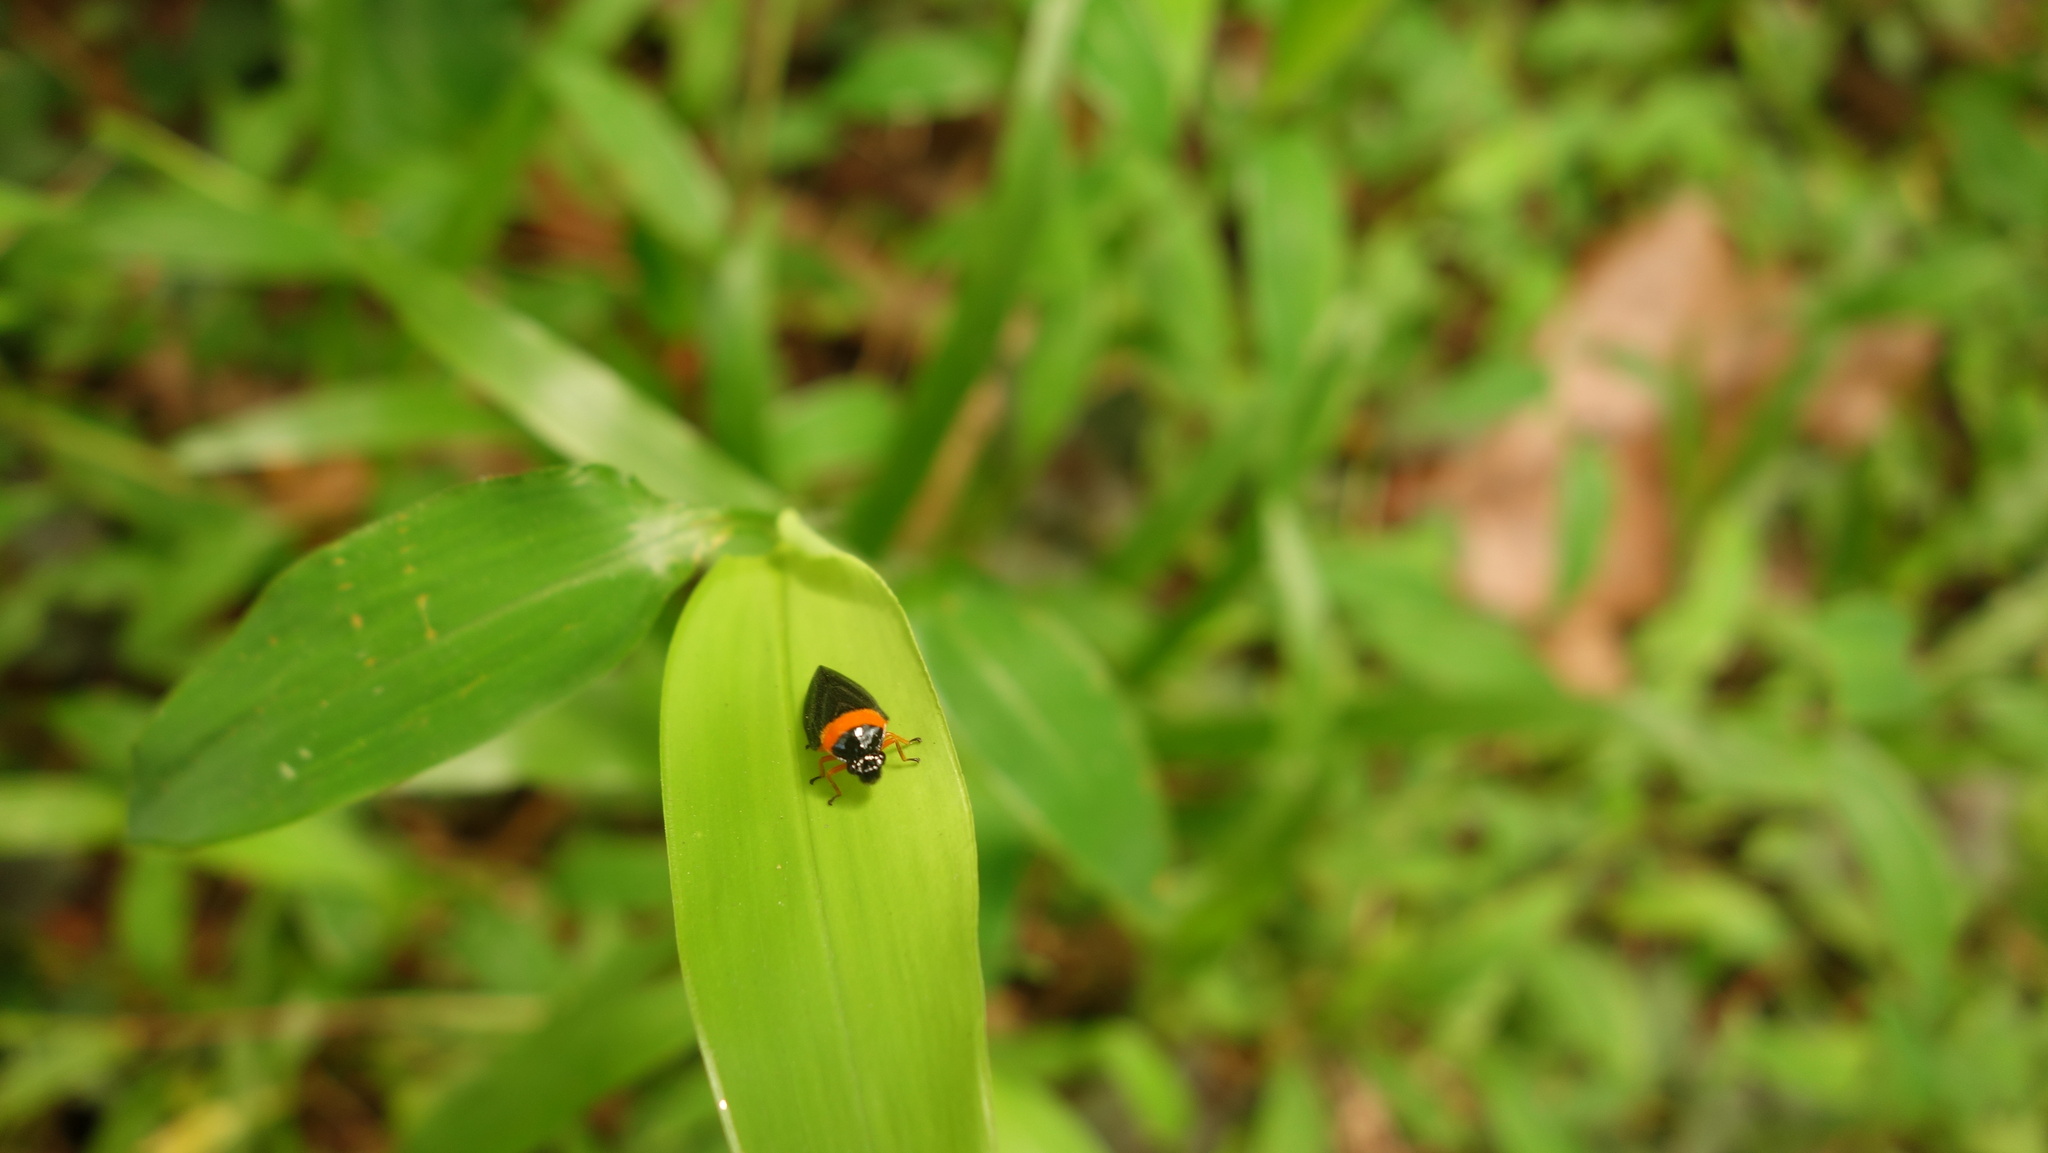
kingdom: Animalia
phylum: Arthropoda
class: Insecta
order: Hemiptera
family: Cercopidae
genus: Phymatostetha
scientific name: Phymatostetha deschampsi
